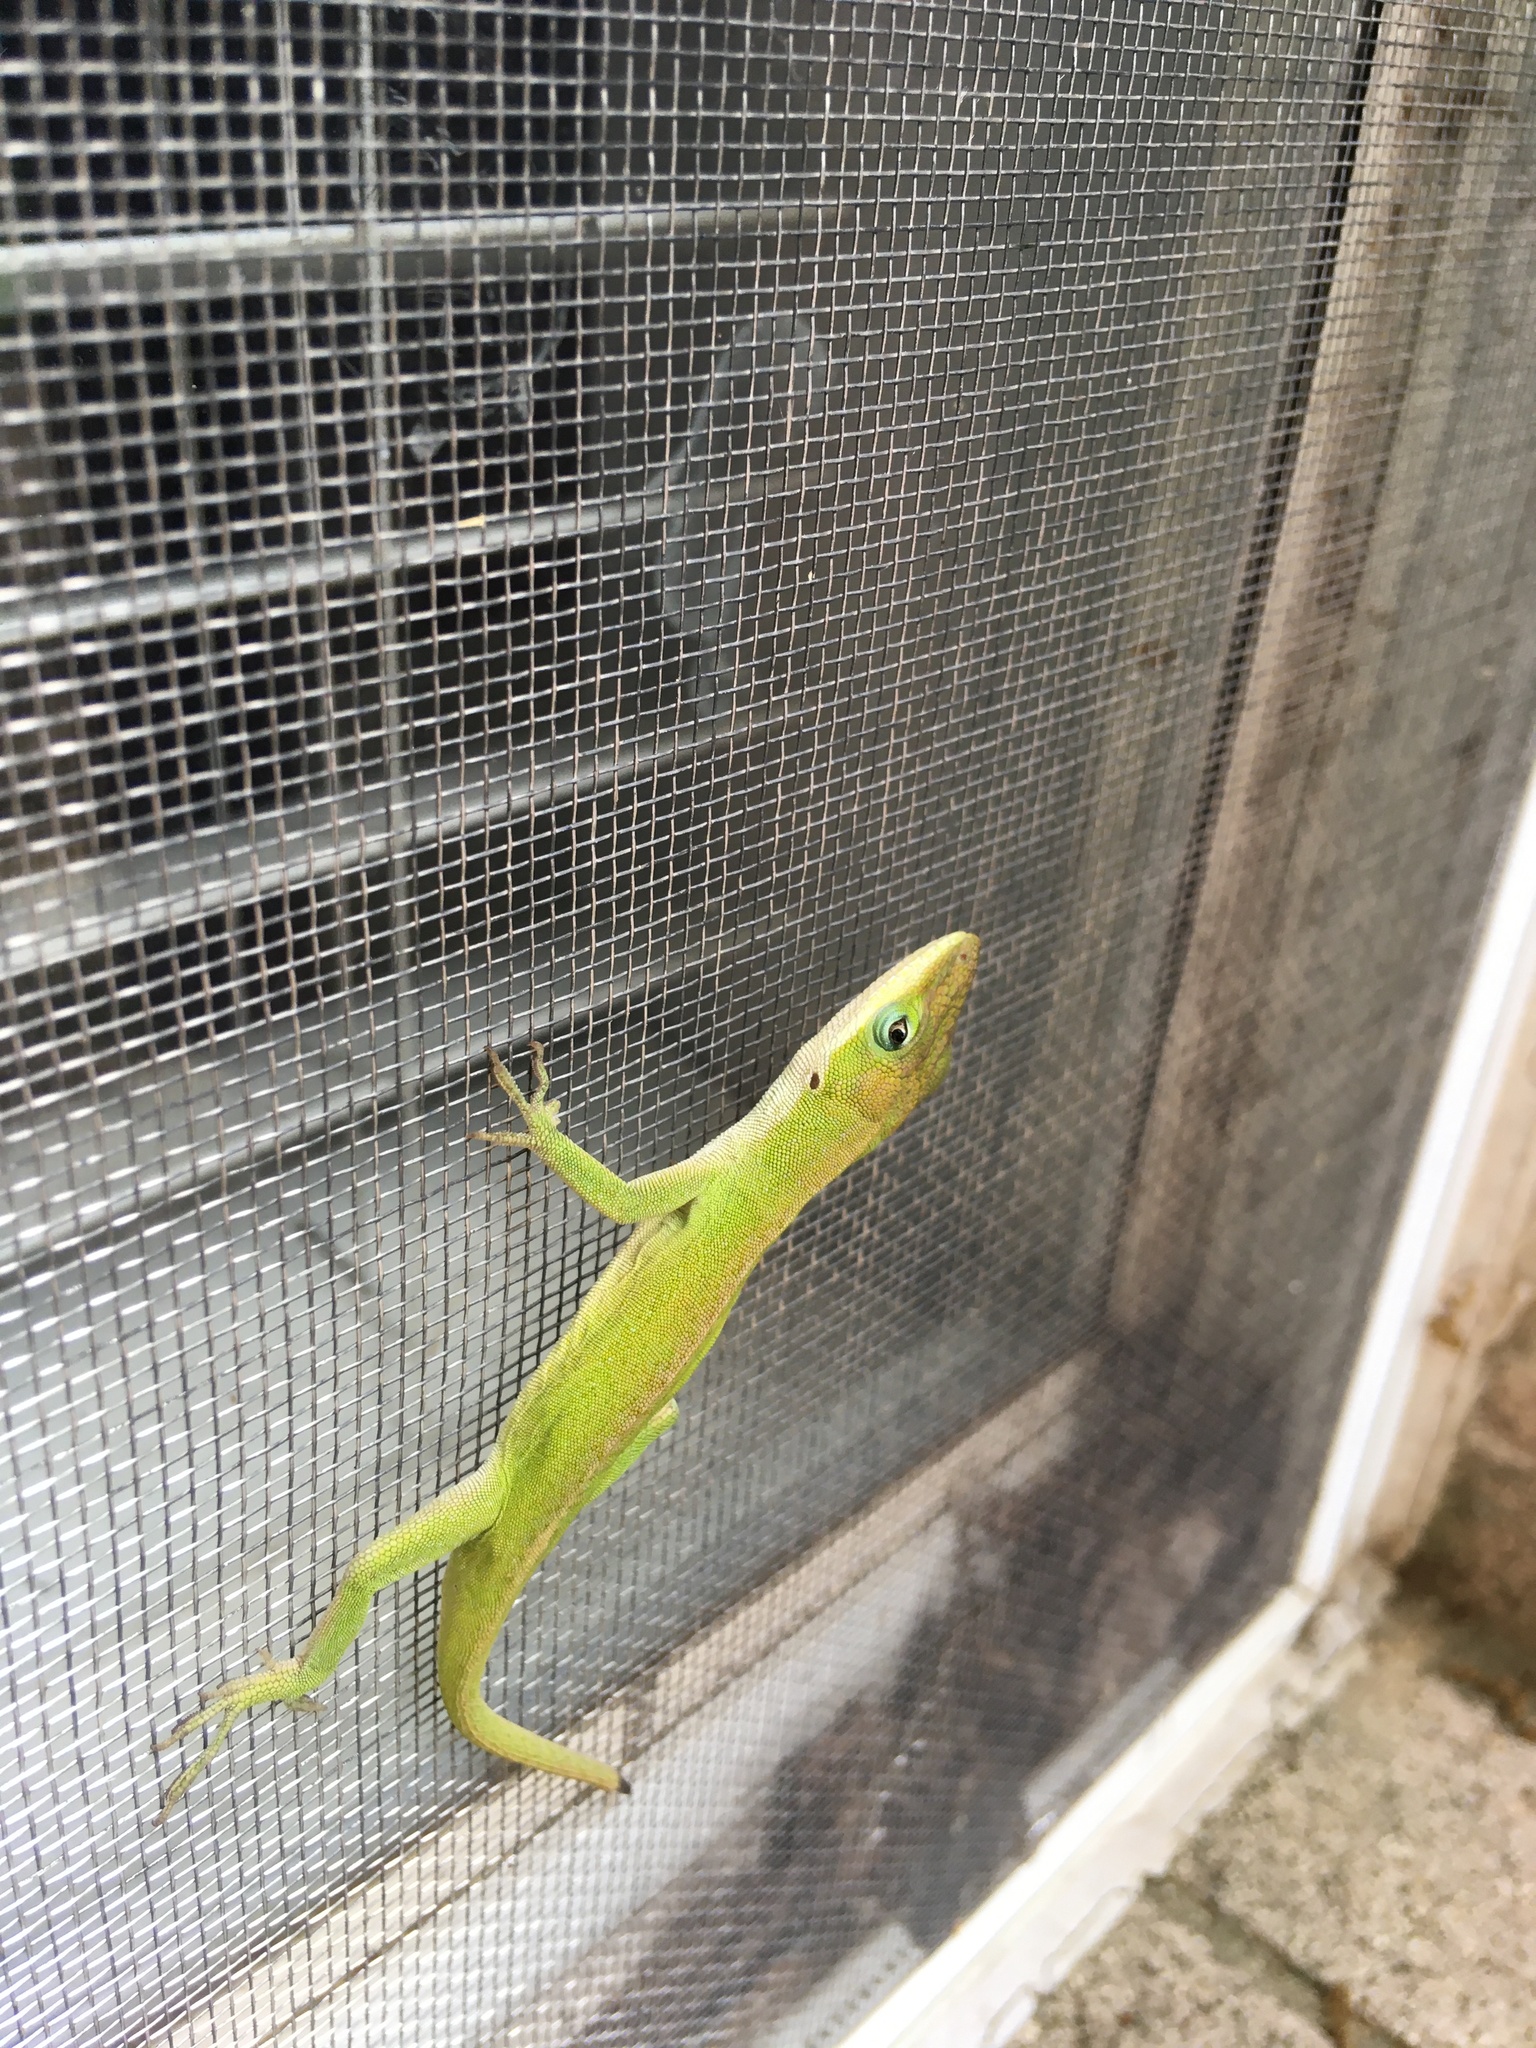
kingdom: Animalia
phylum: Chordata
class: Squamata
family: Dactyloidae
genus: Anolis
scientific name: Anolis carolinensis
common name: Green anole
